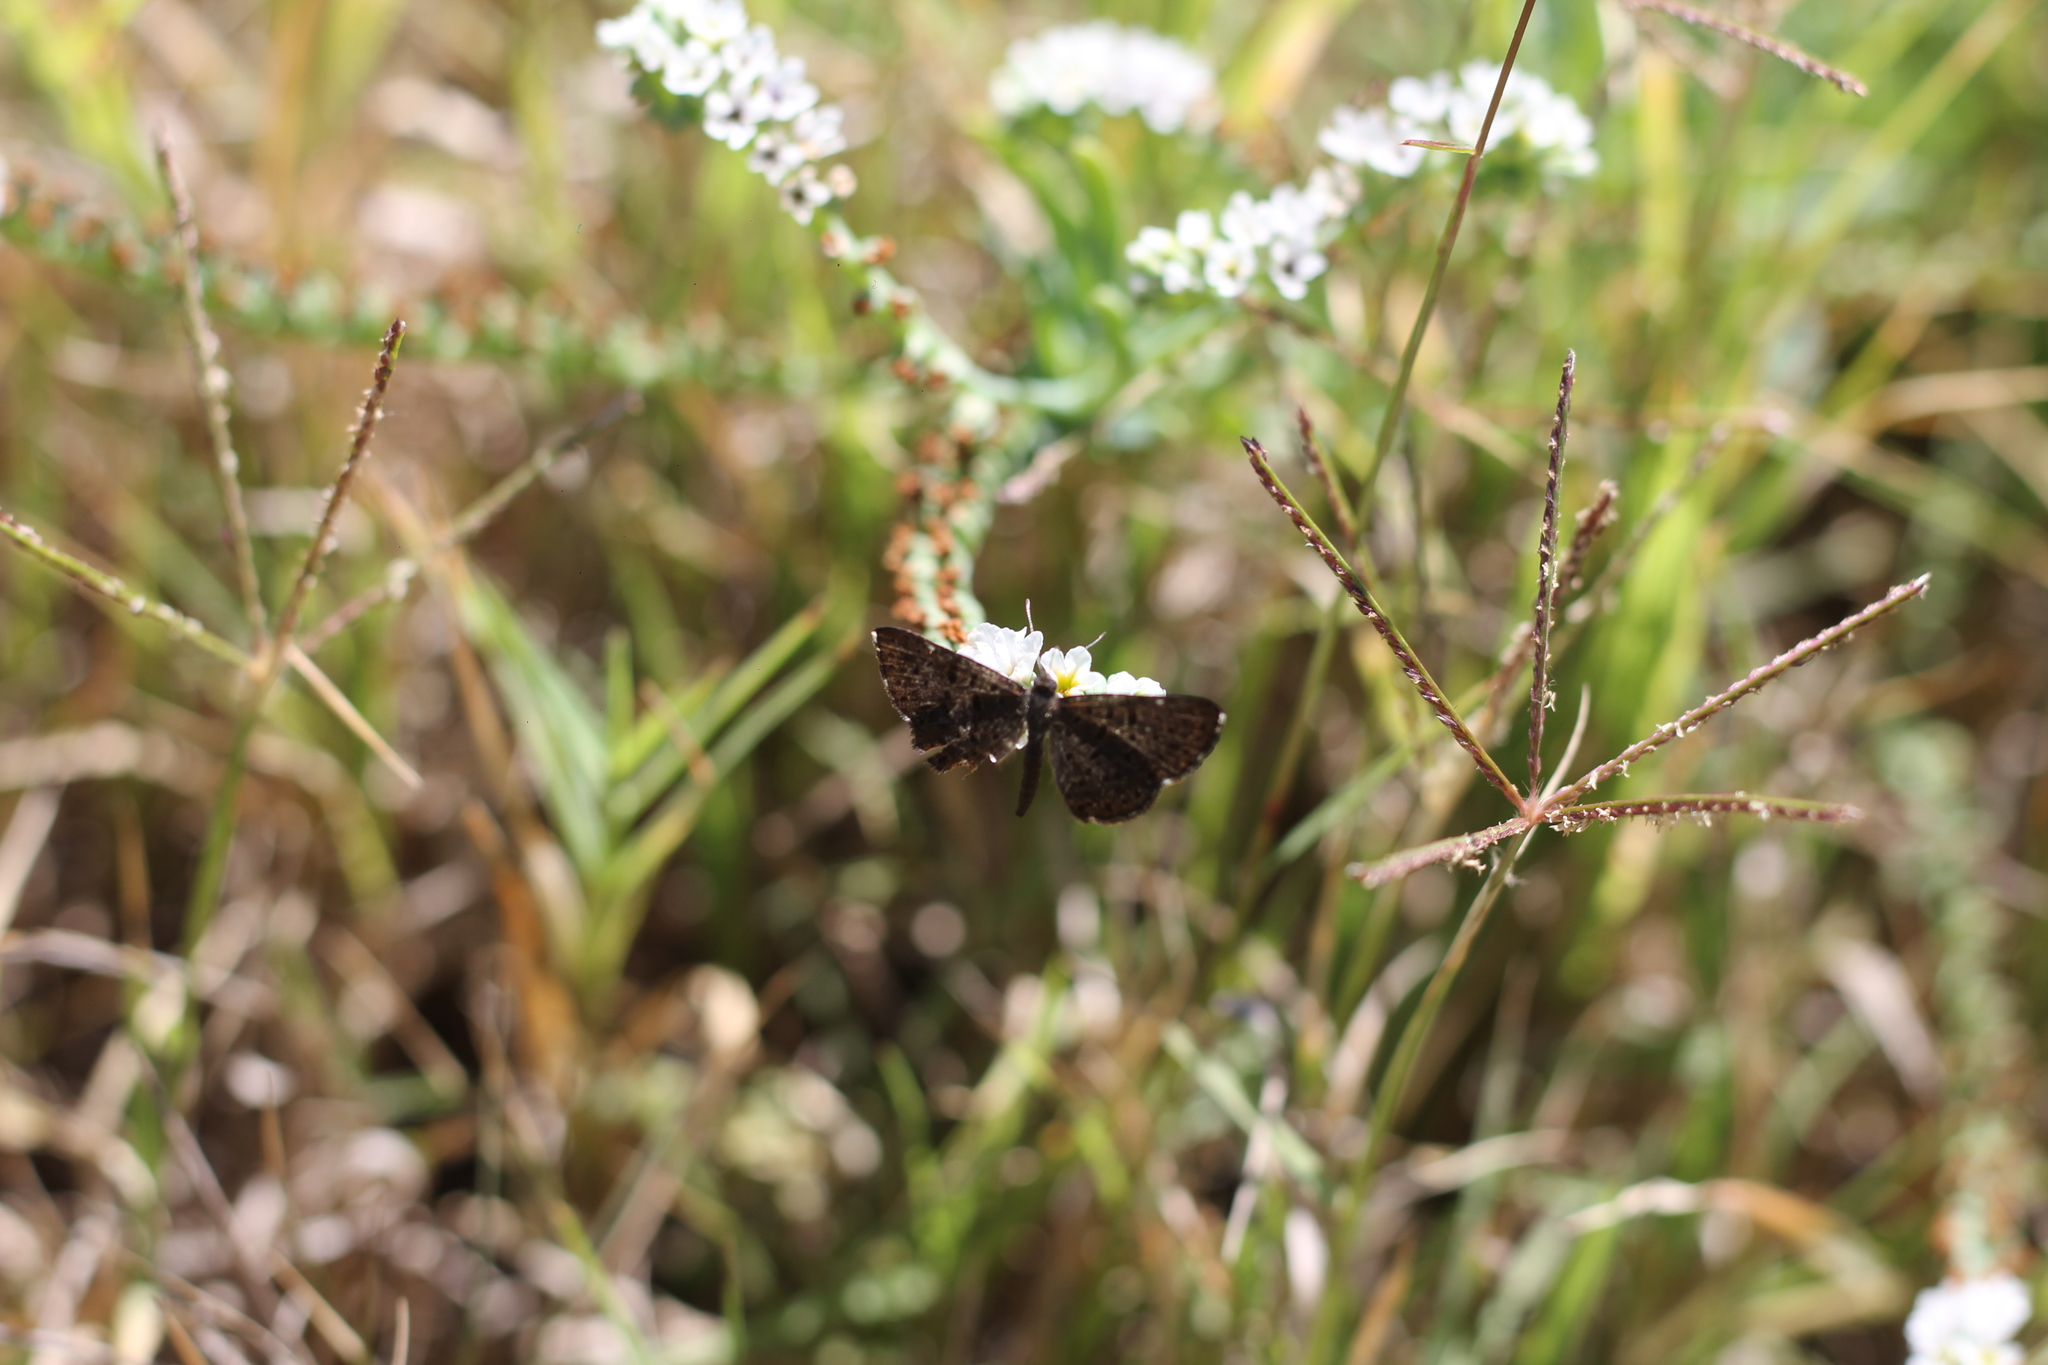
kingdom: Animalia
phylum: Arthropoda
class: Insecta
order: Lepidoptera
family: Riodinidae
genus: Teenie
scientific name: Teenie tinea
